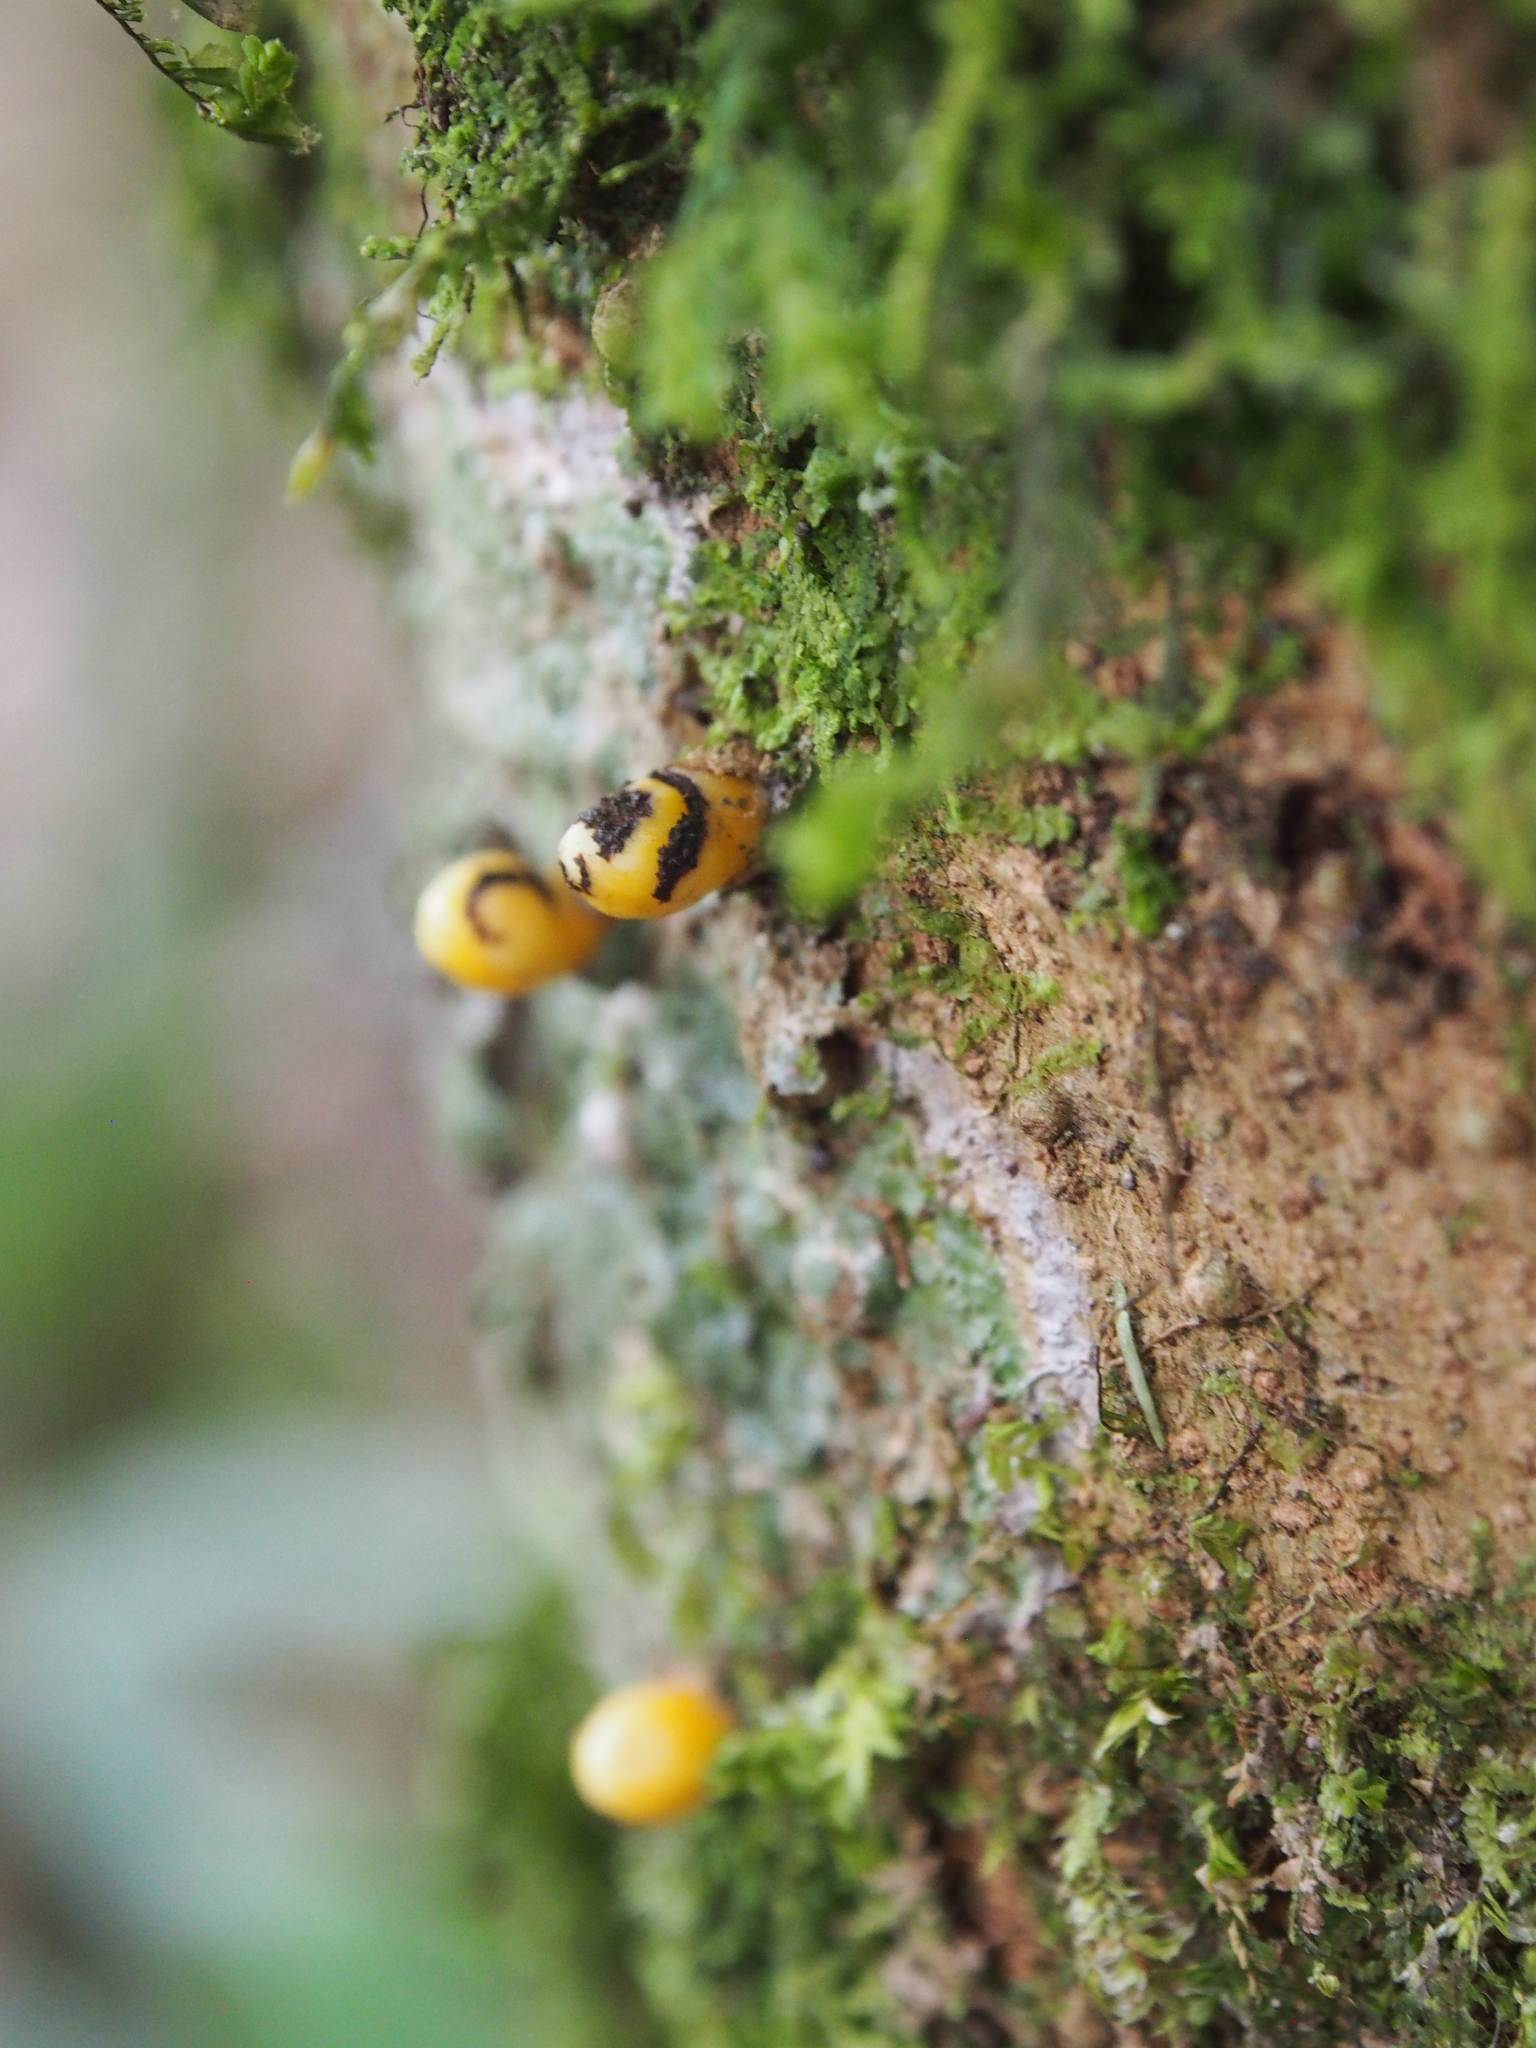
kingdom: Plantae
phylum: Tracheophyta
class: Magnoliopsida
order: Cucurbitales
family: Apodanthaceae
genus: Apodanthes
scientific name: Apodanthes caseariae
